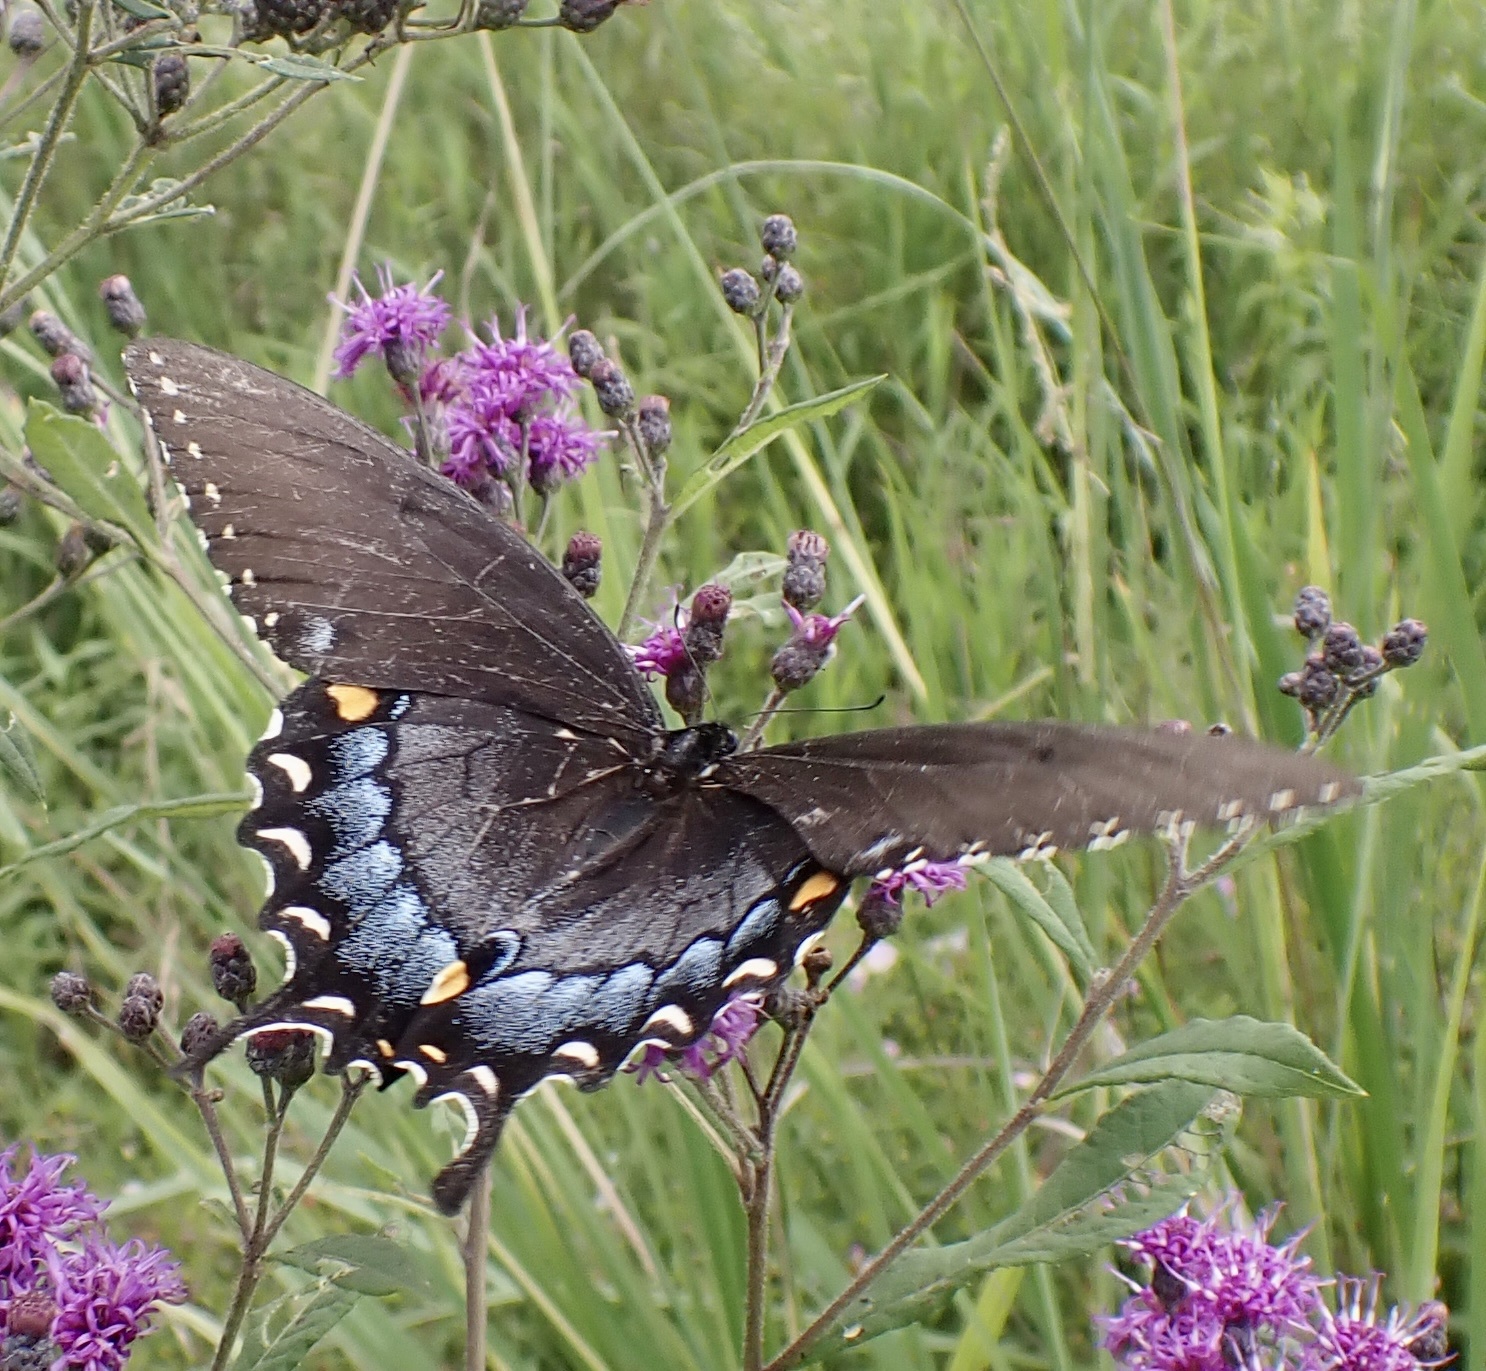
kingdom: Animalia
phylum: Arthropoda
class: Insecta
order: Lepidoptera
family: Papilionidae
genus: Papilio
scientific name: Papilio glaucus
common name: Tiger swallowtail
